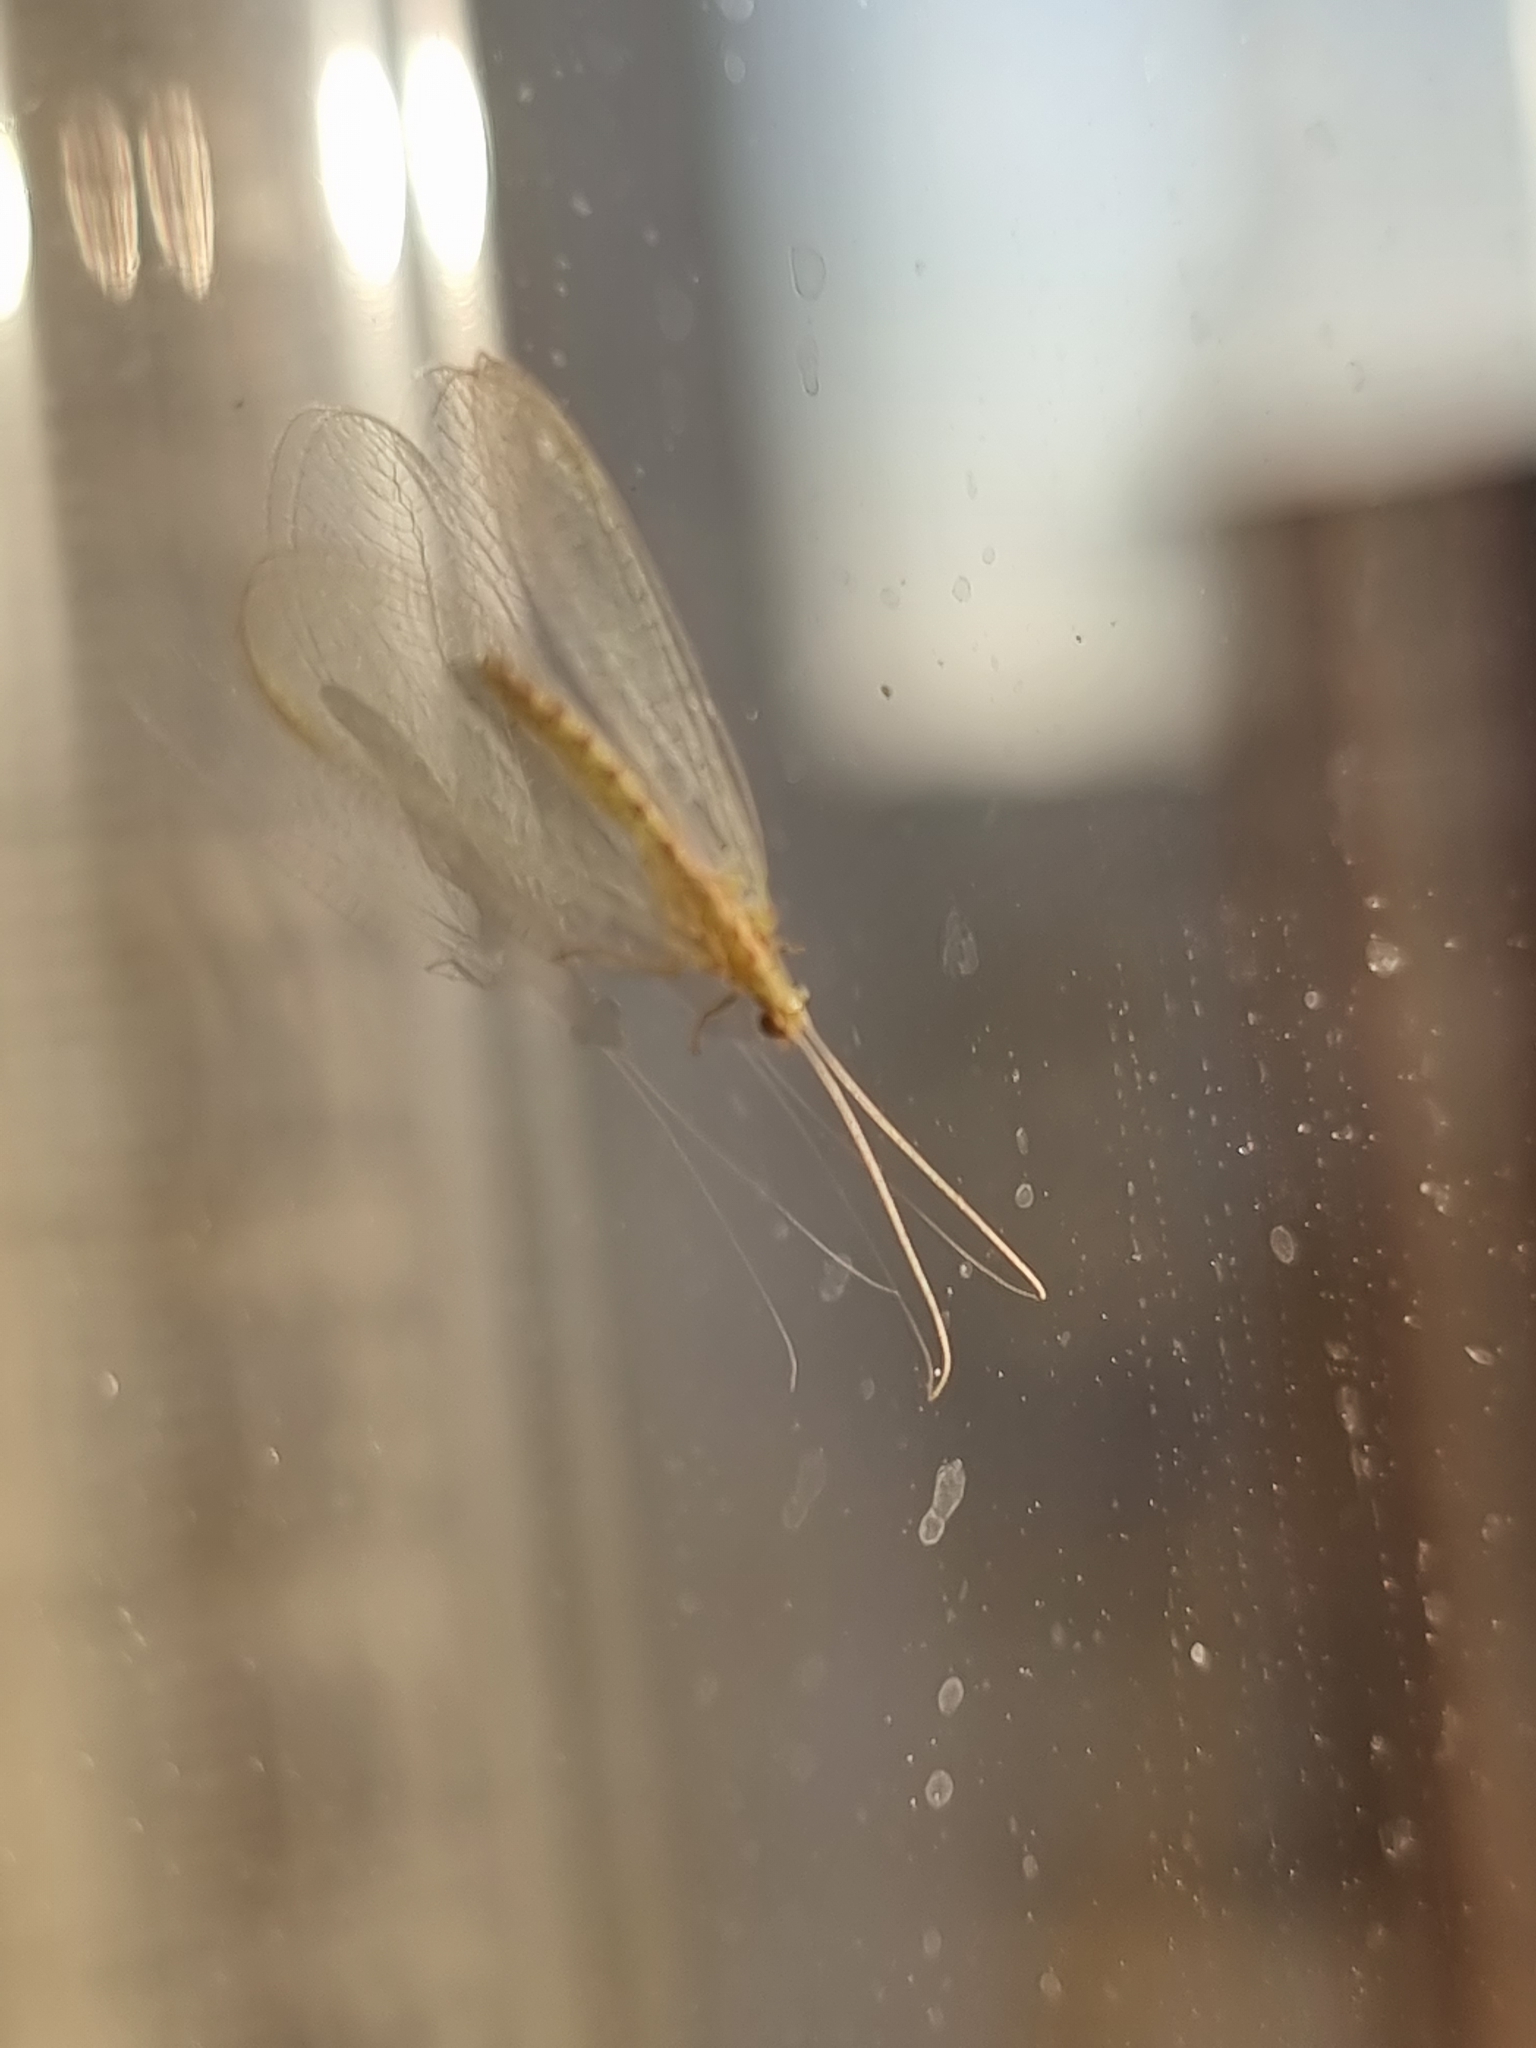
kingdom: Animalia
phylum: Arthropoda
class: Insecta
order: Neuroptera
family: Chrysopidae
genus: Chrysoperla
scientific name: Chrysoperla
